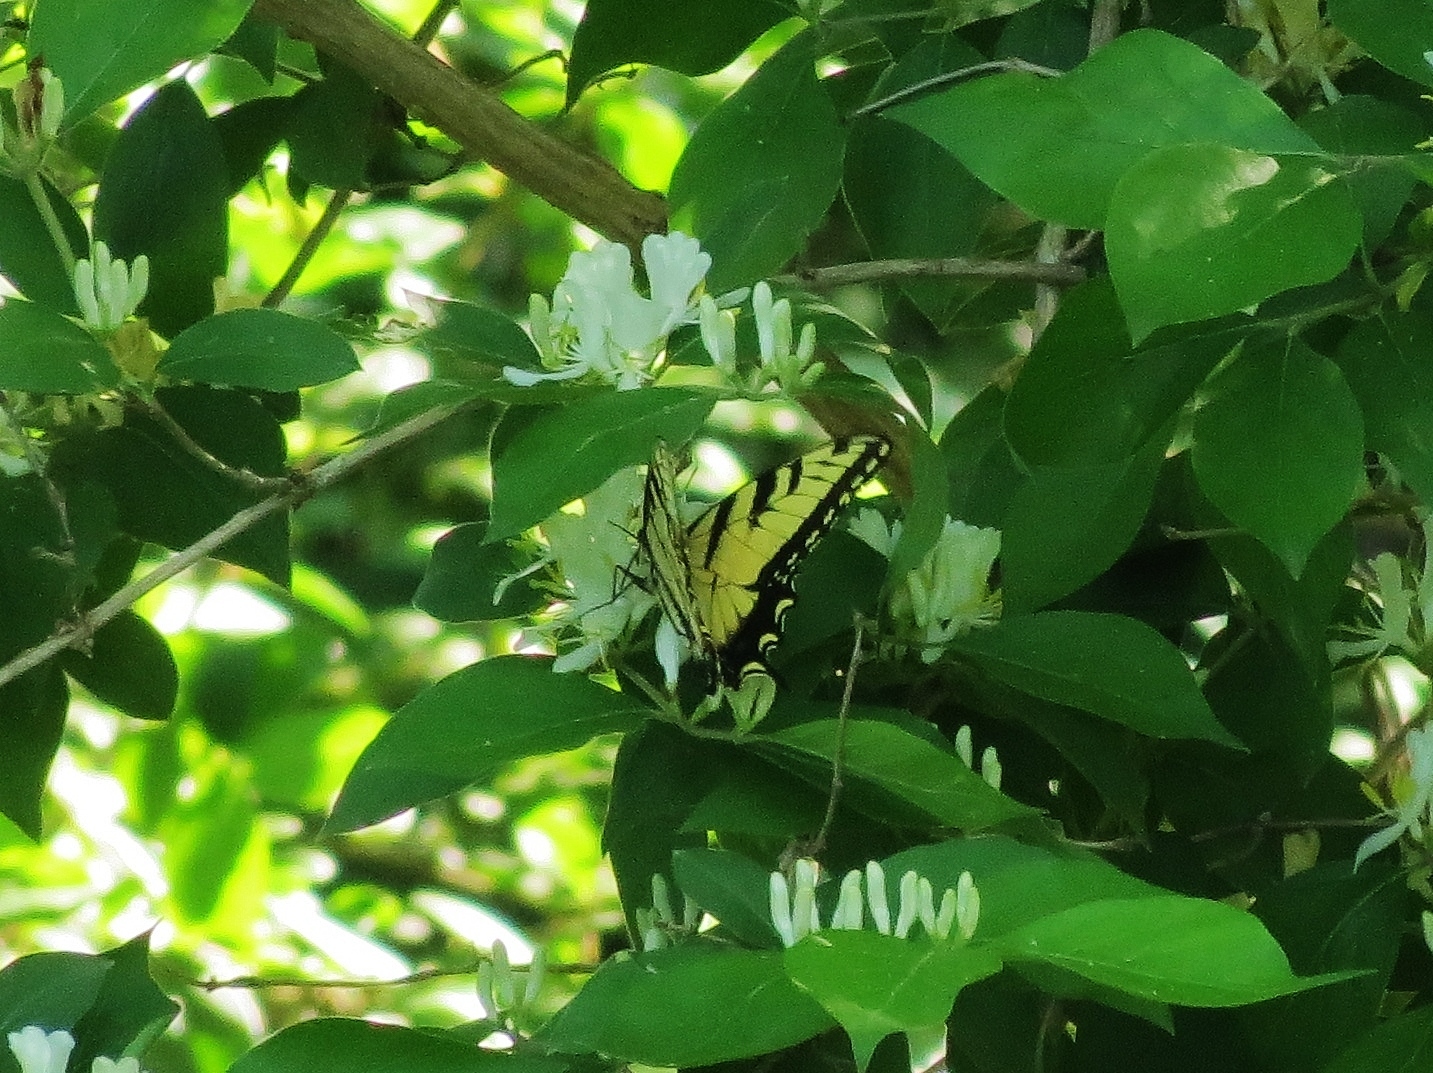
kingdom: Animalia
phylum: Arthropoda
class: Insecta
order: Lepidoptera
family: Papilionidae
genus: Papilio
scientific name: Papilio glaucus
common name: Tiger swallowtail
